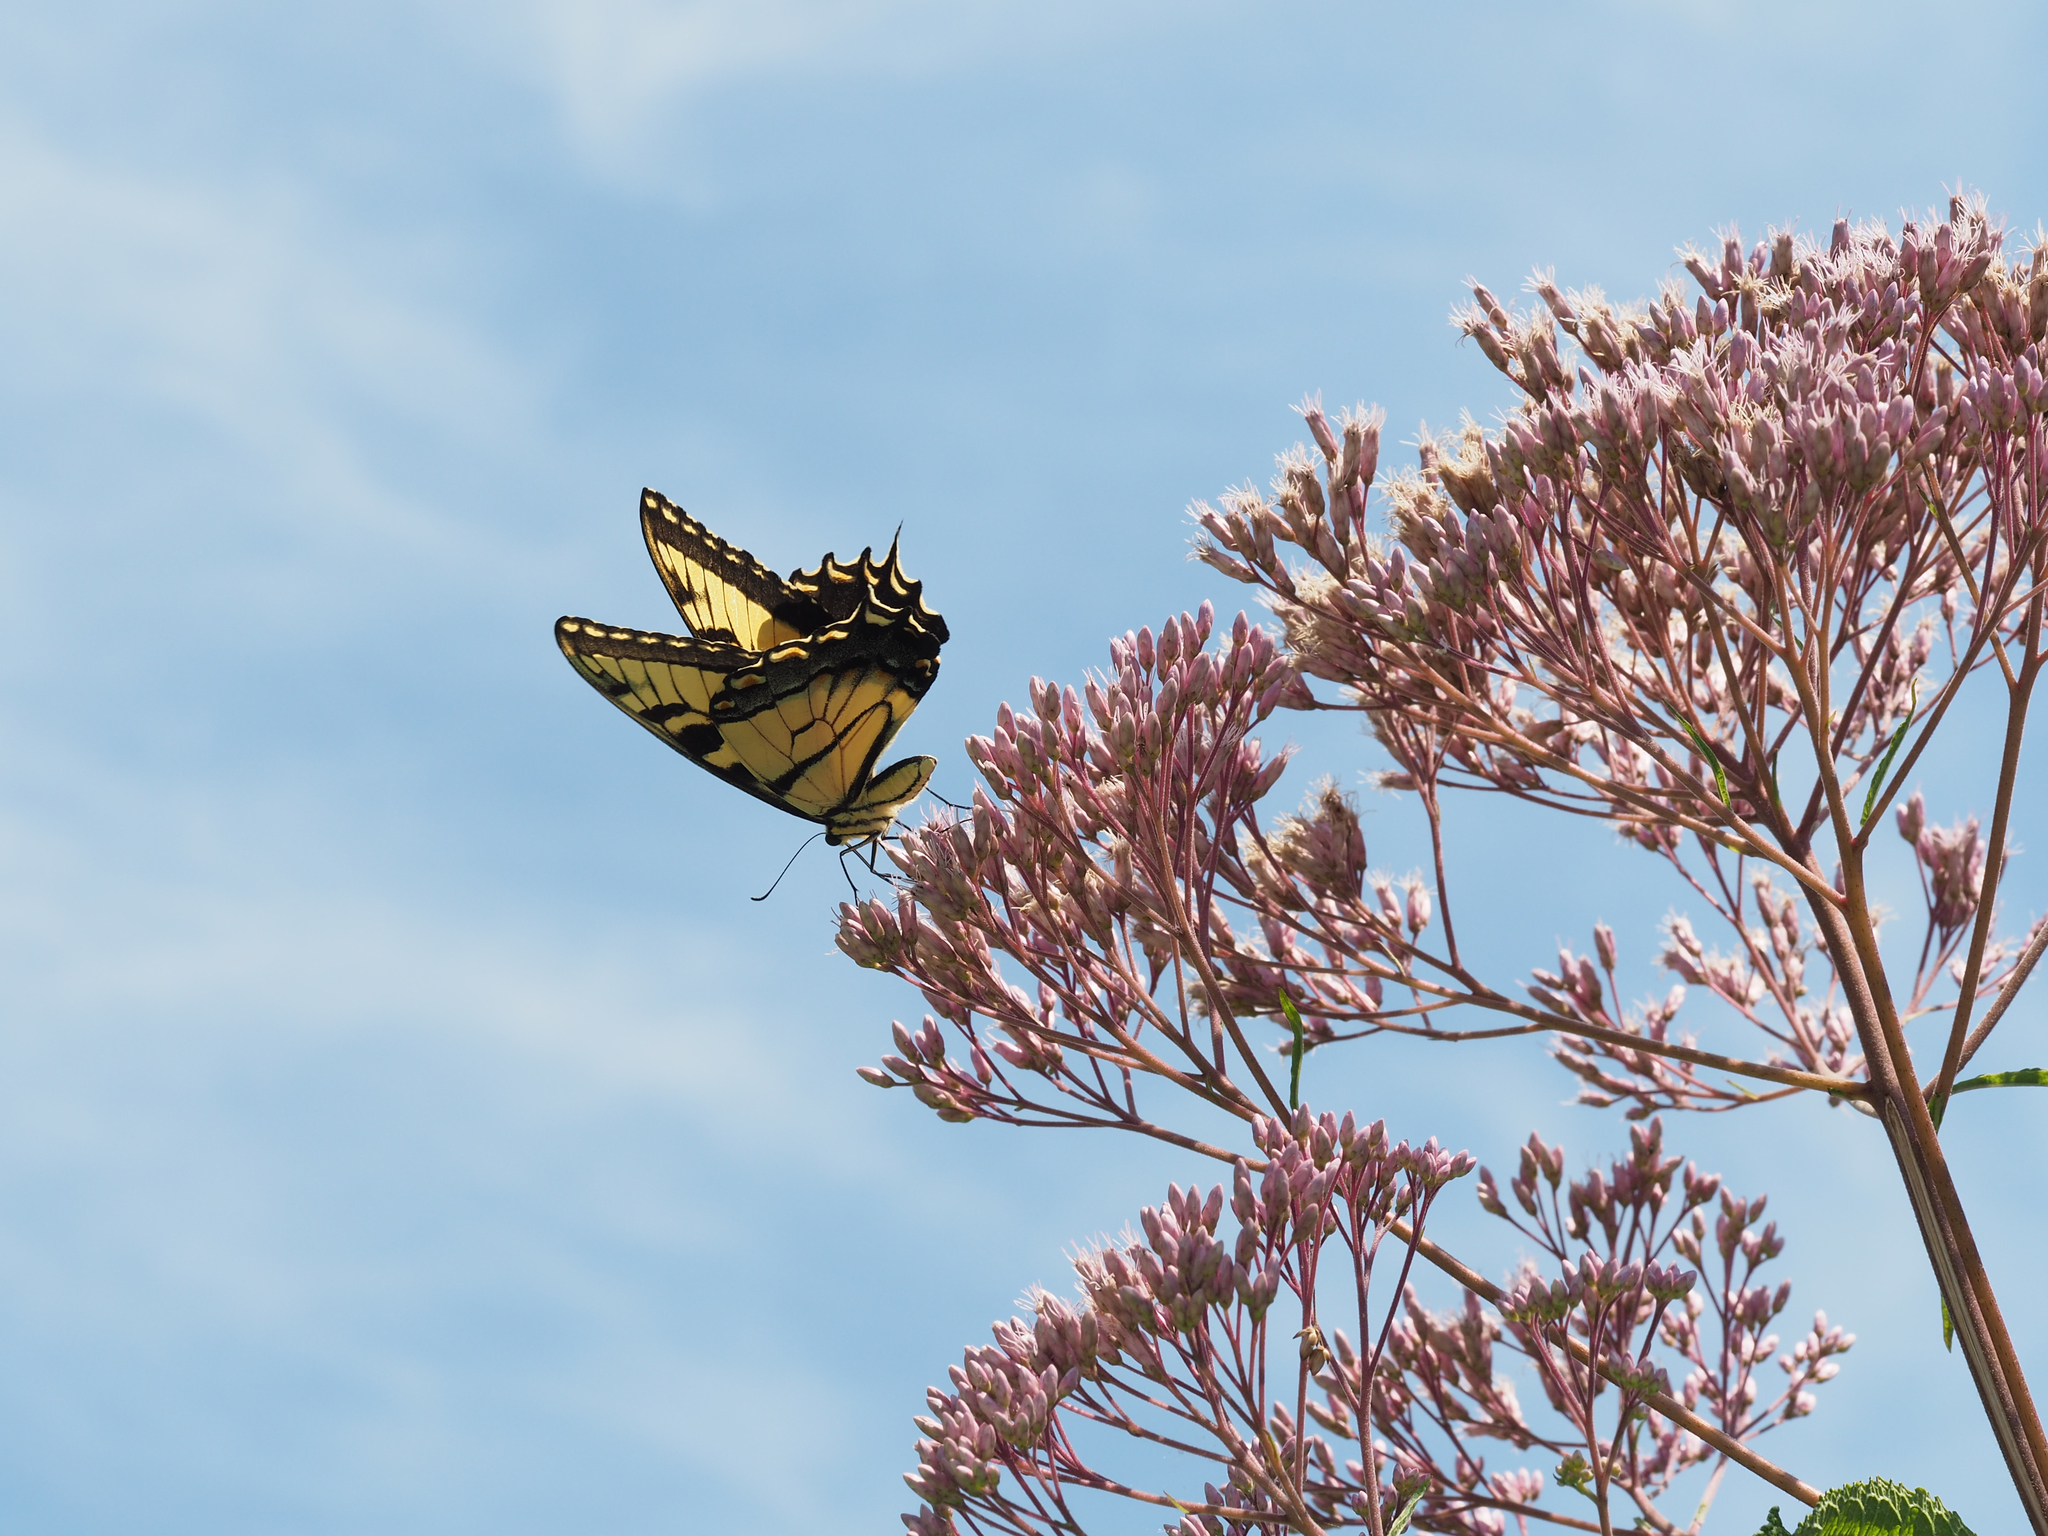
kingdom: Animalia
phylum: Arthropoda
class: Insecta
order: Lepidoptera
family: Papilionidae
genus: Papilio
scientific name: Papilio glaucus
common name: Tiger swallowtail
